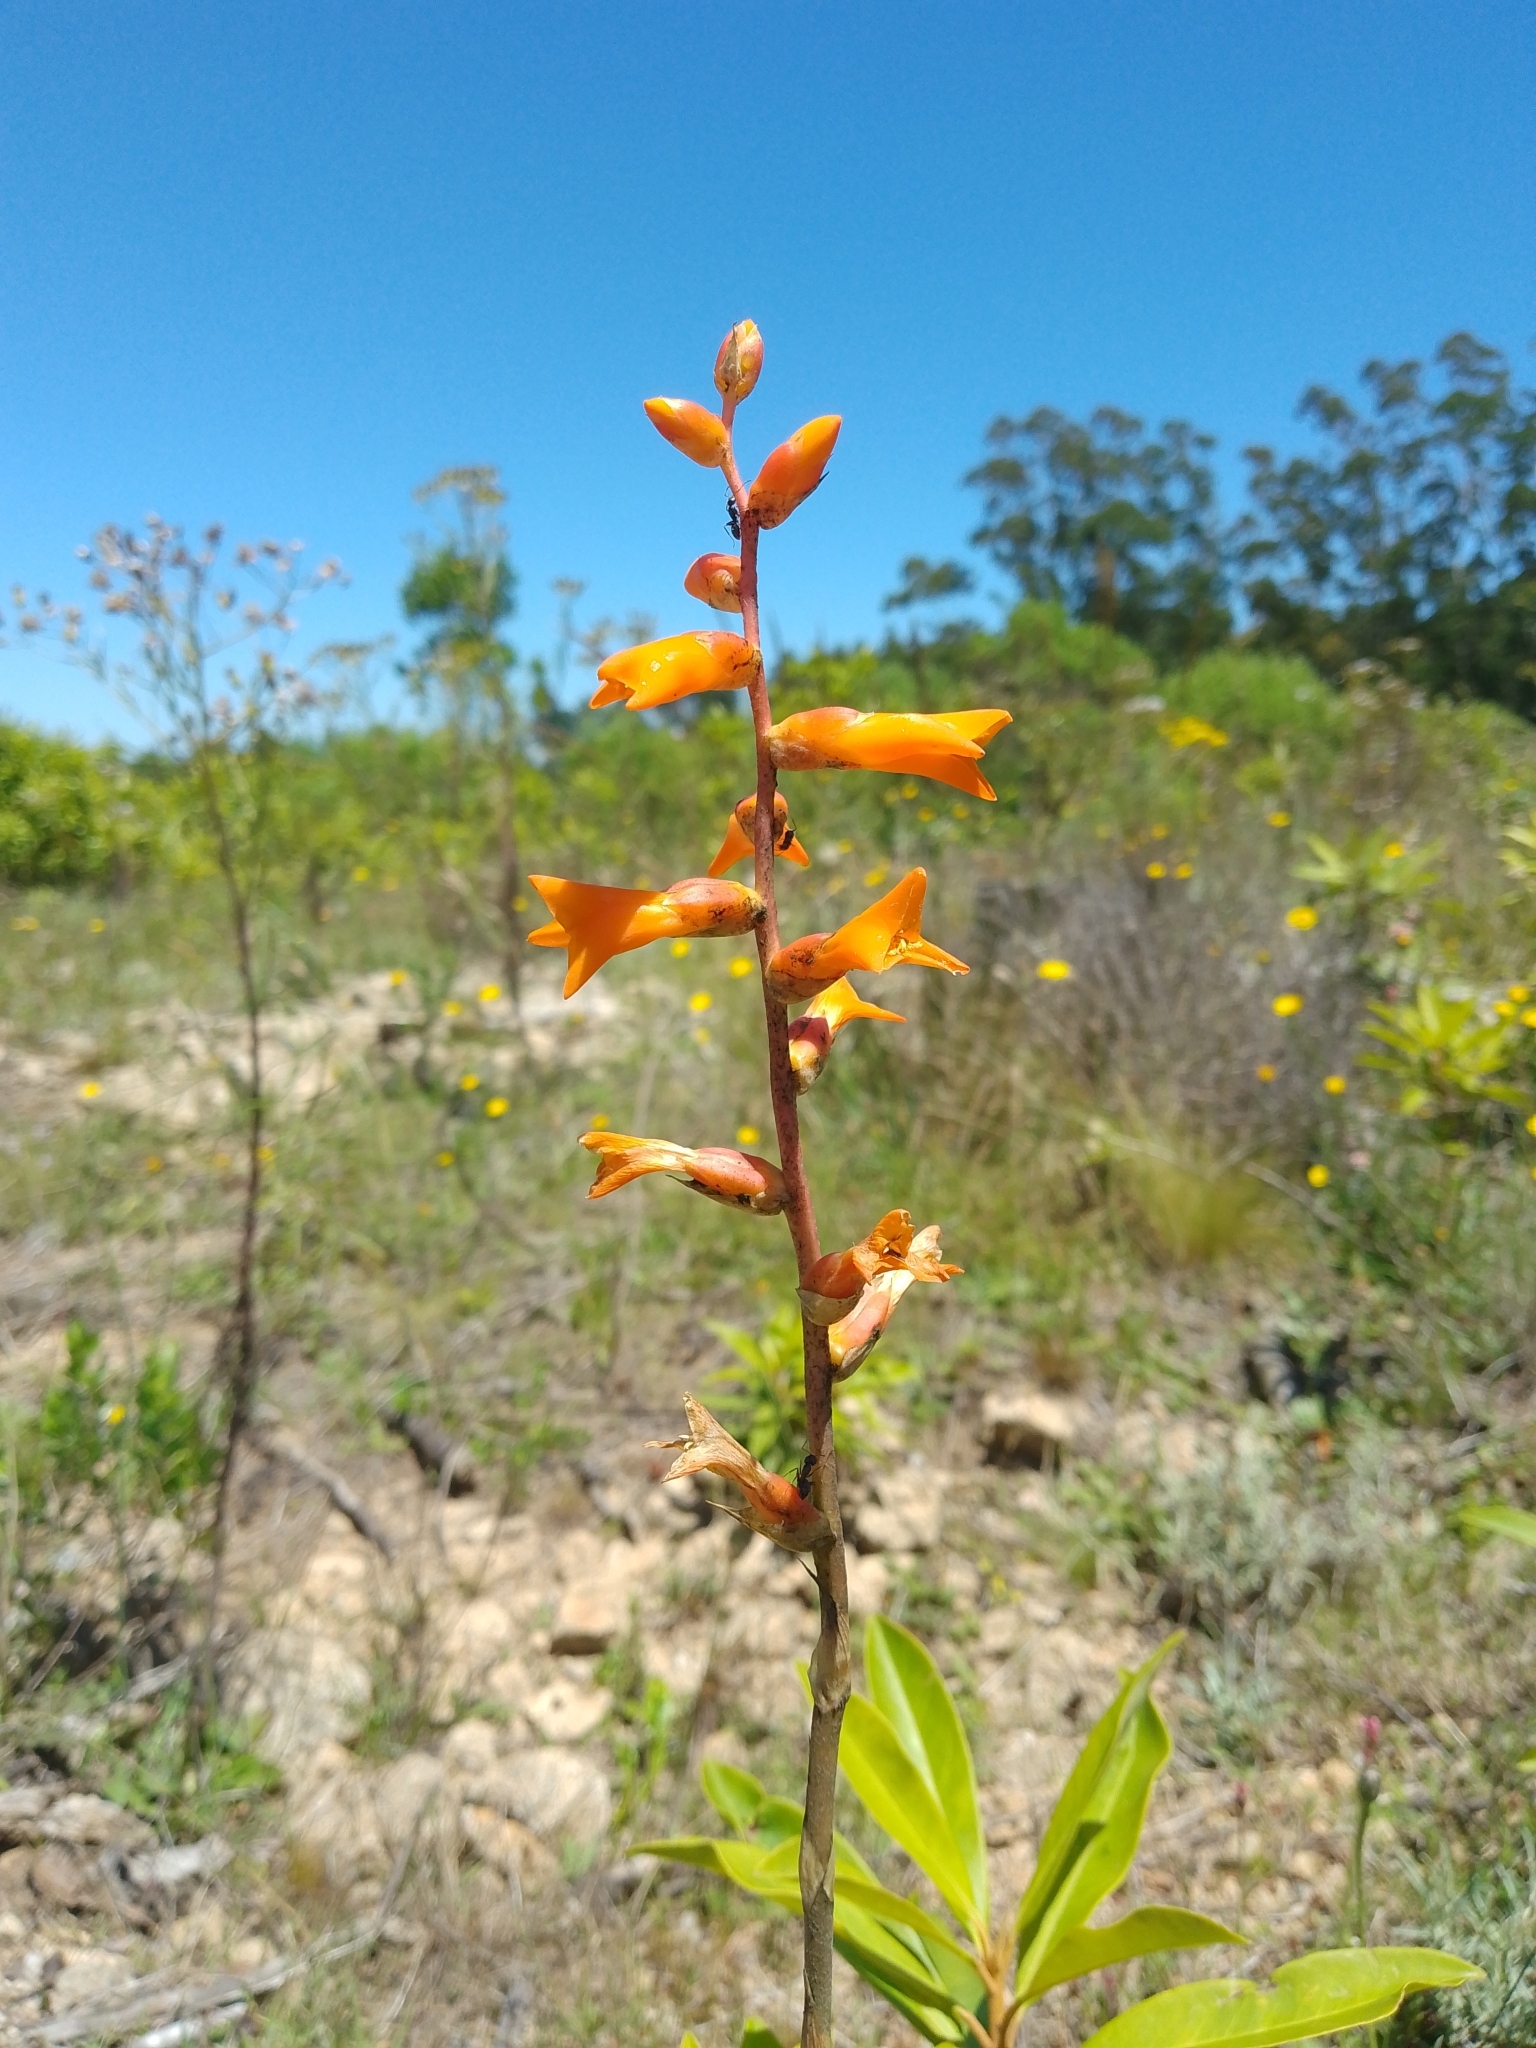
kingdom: Plantae
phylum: Tracheophyta
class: Liliopsida
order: Poales
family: Bromeliaceae
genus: Dyckia
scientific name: Dyckia remotiflora
